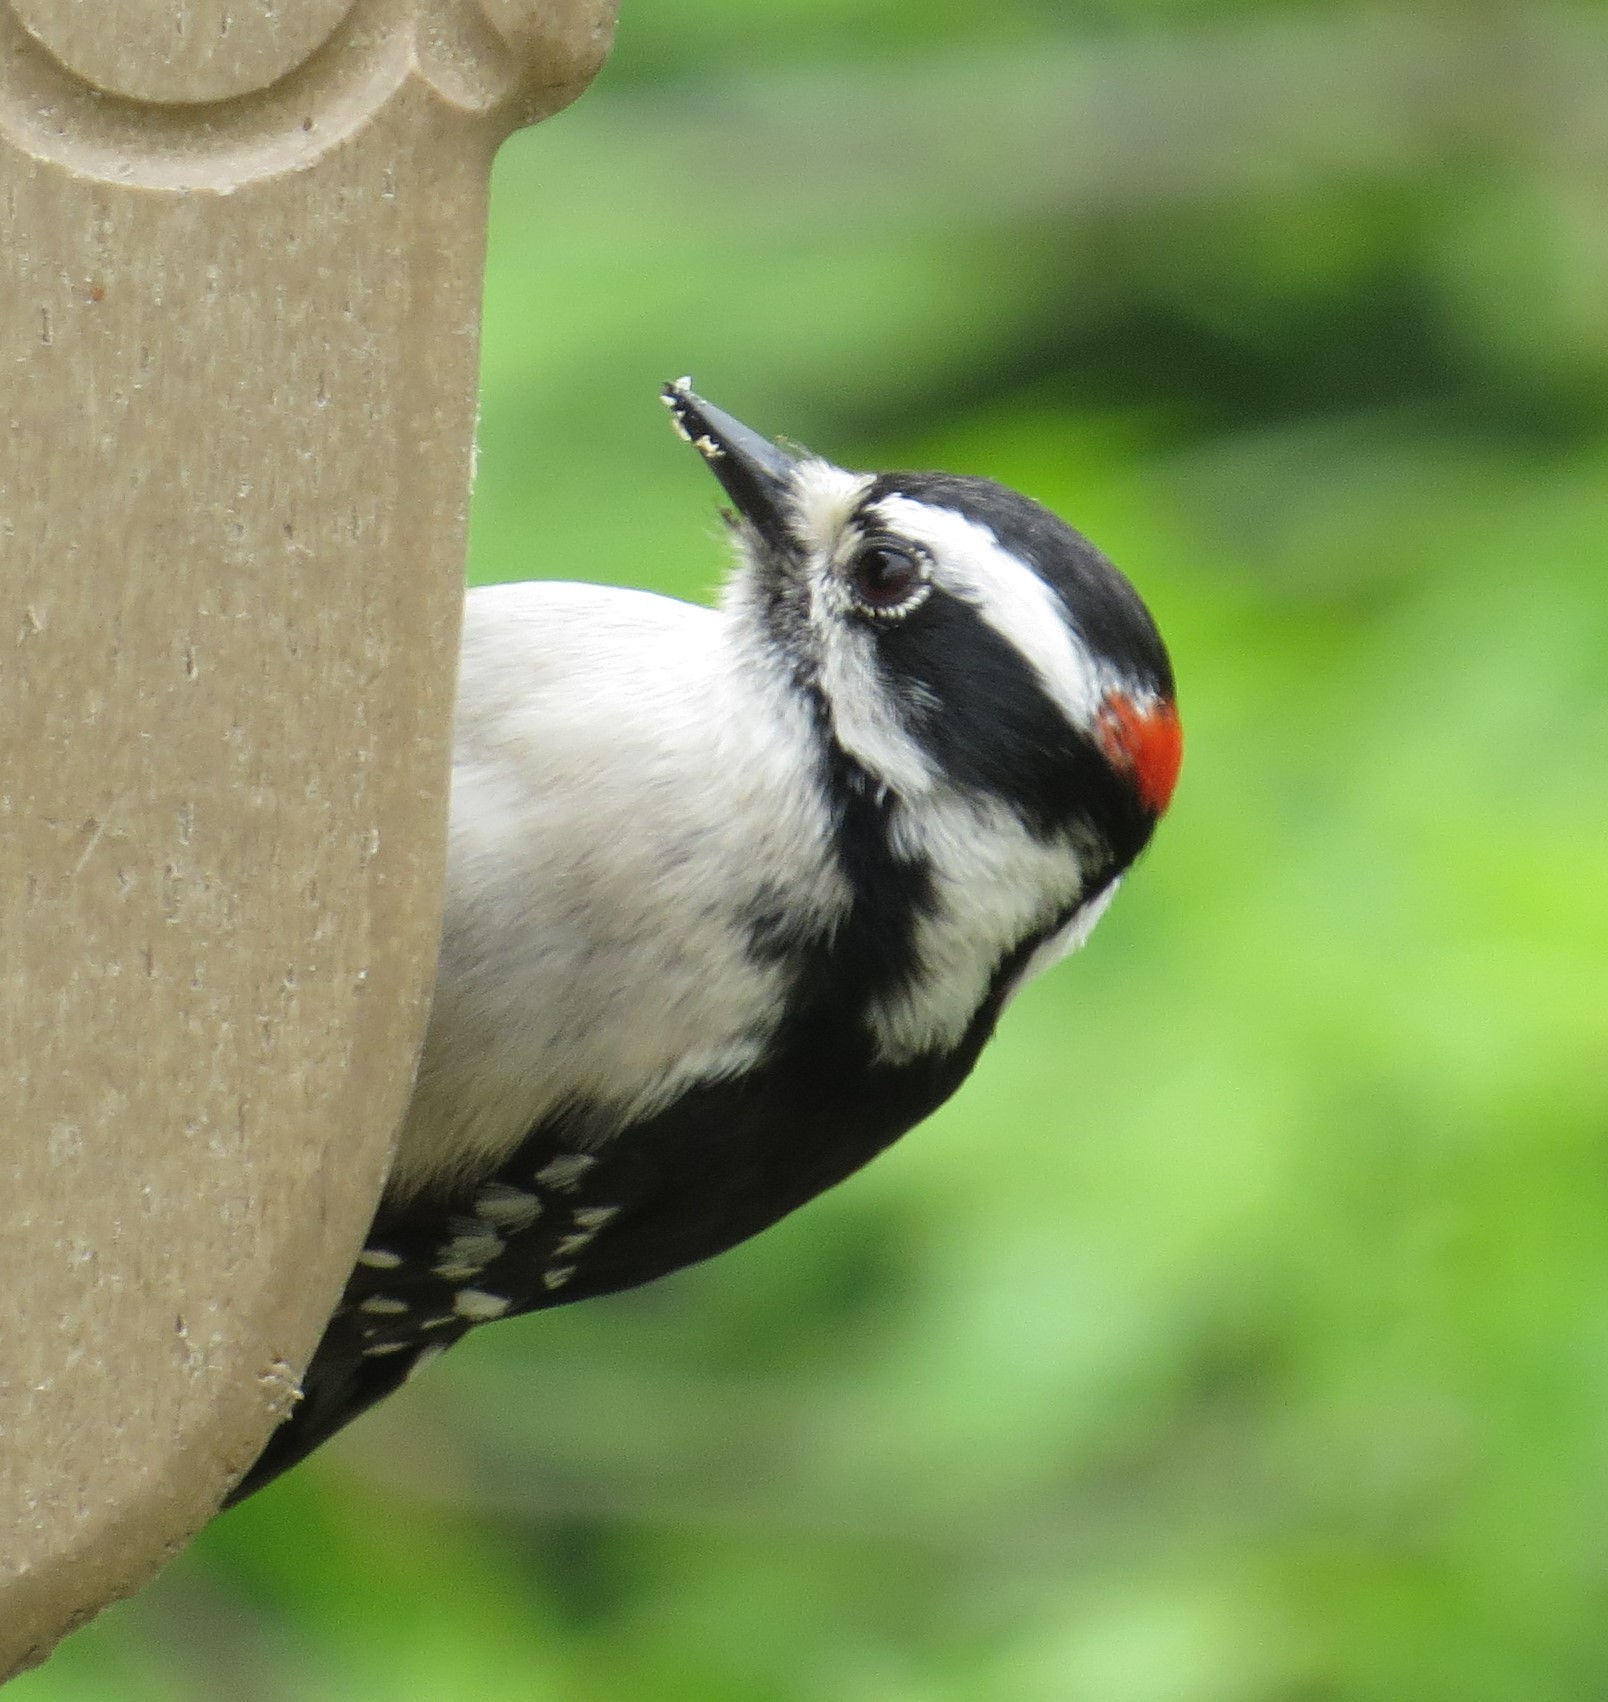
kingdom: Animalia
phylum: Chordata
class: Aves
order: Piciformes
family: Picidae
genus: Dryobates
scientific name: Dryobates pubescens
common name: Downy woodpecker
